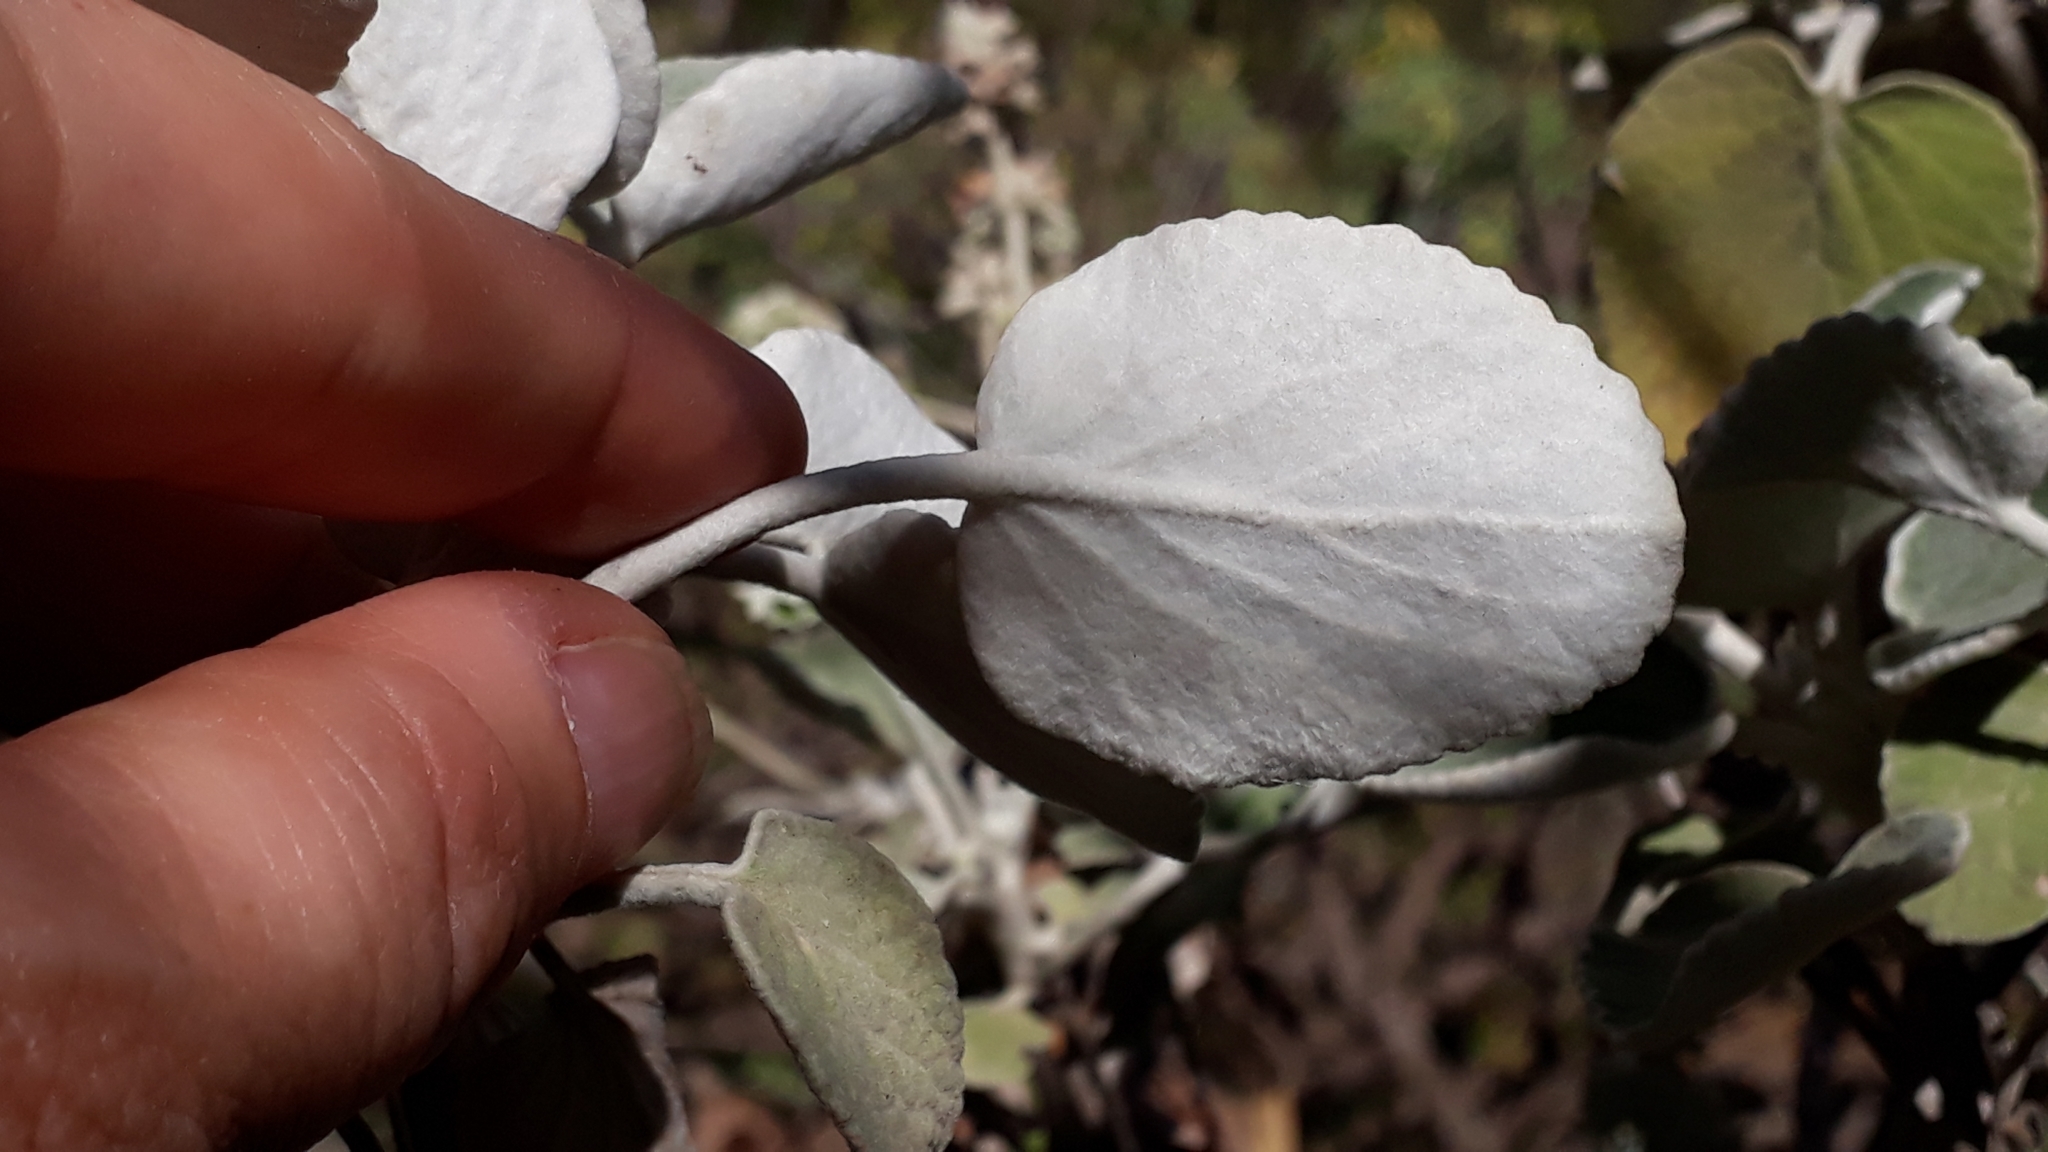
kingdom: Plantae
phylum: Tracheophyta
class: Magnoliopsida
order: Lamiales
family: Lamiaceae
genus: Sideritis
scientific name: Sideritis cretica
